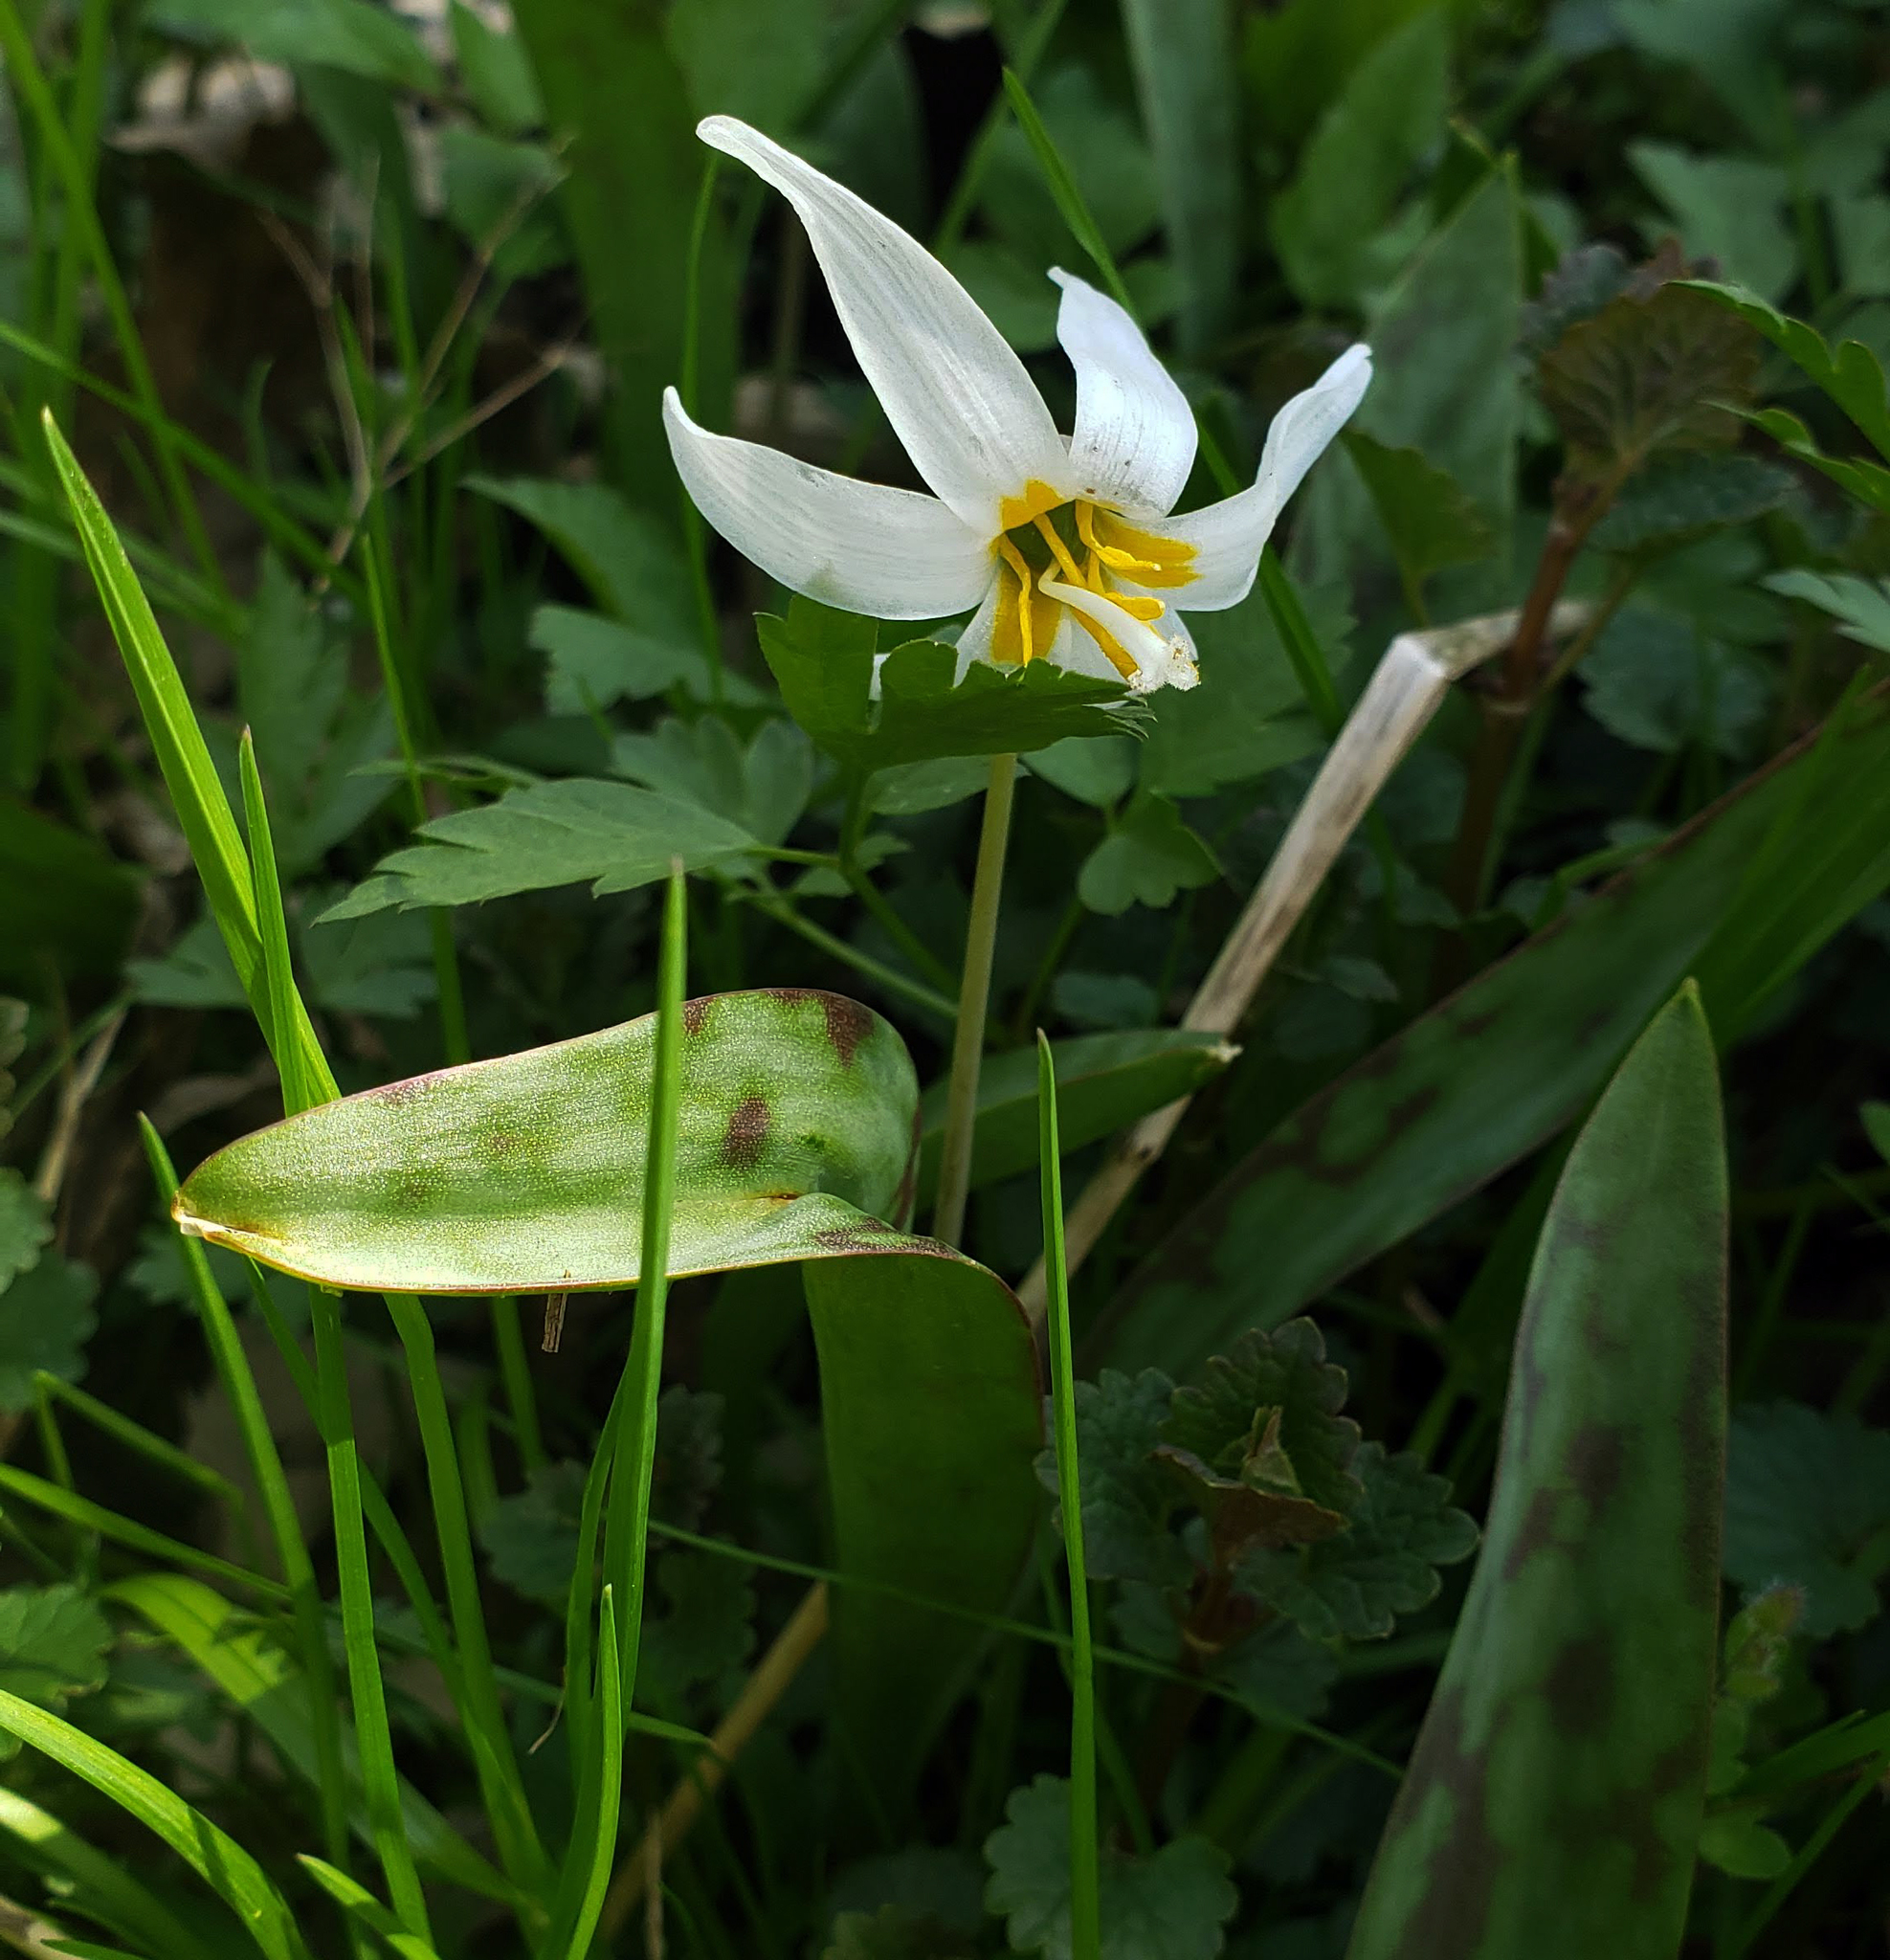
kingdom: Plantae
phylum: Tracheophyta
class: Liliopsida
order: Liliales
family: Liliaceae
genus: Erythronium
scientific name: Erythronium albidum
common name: White trout-lily
